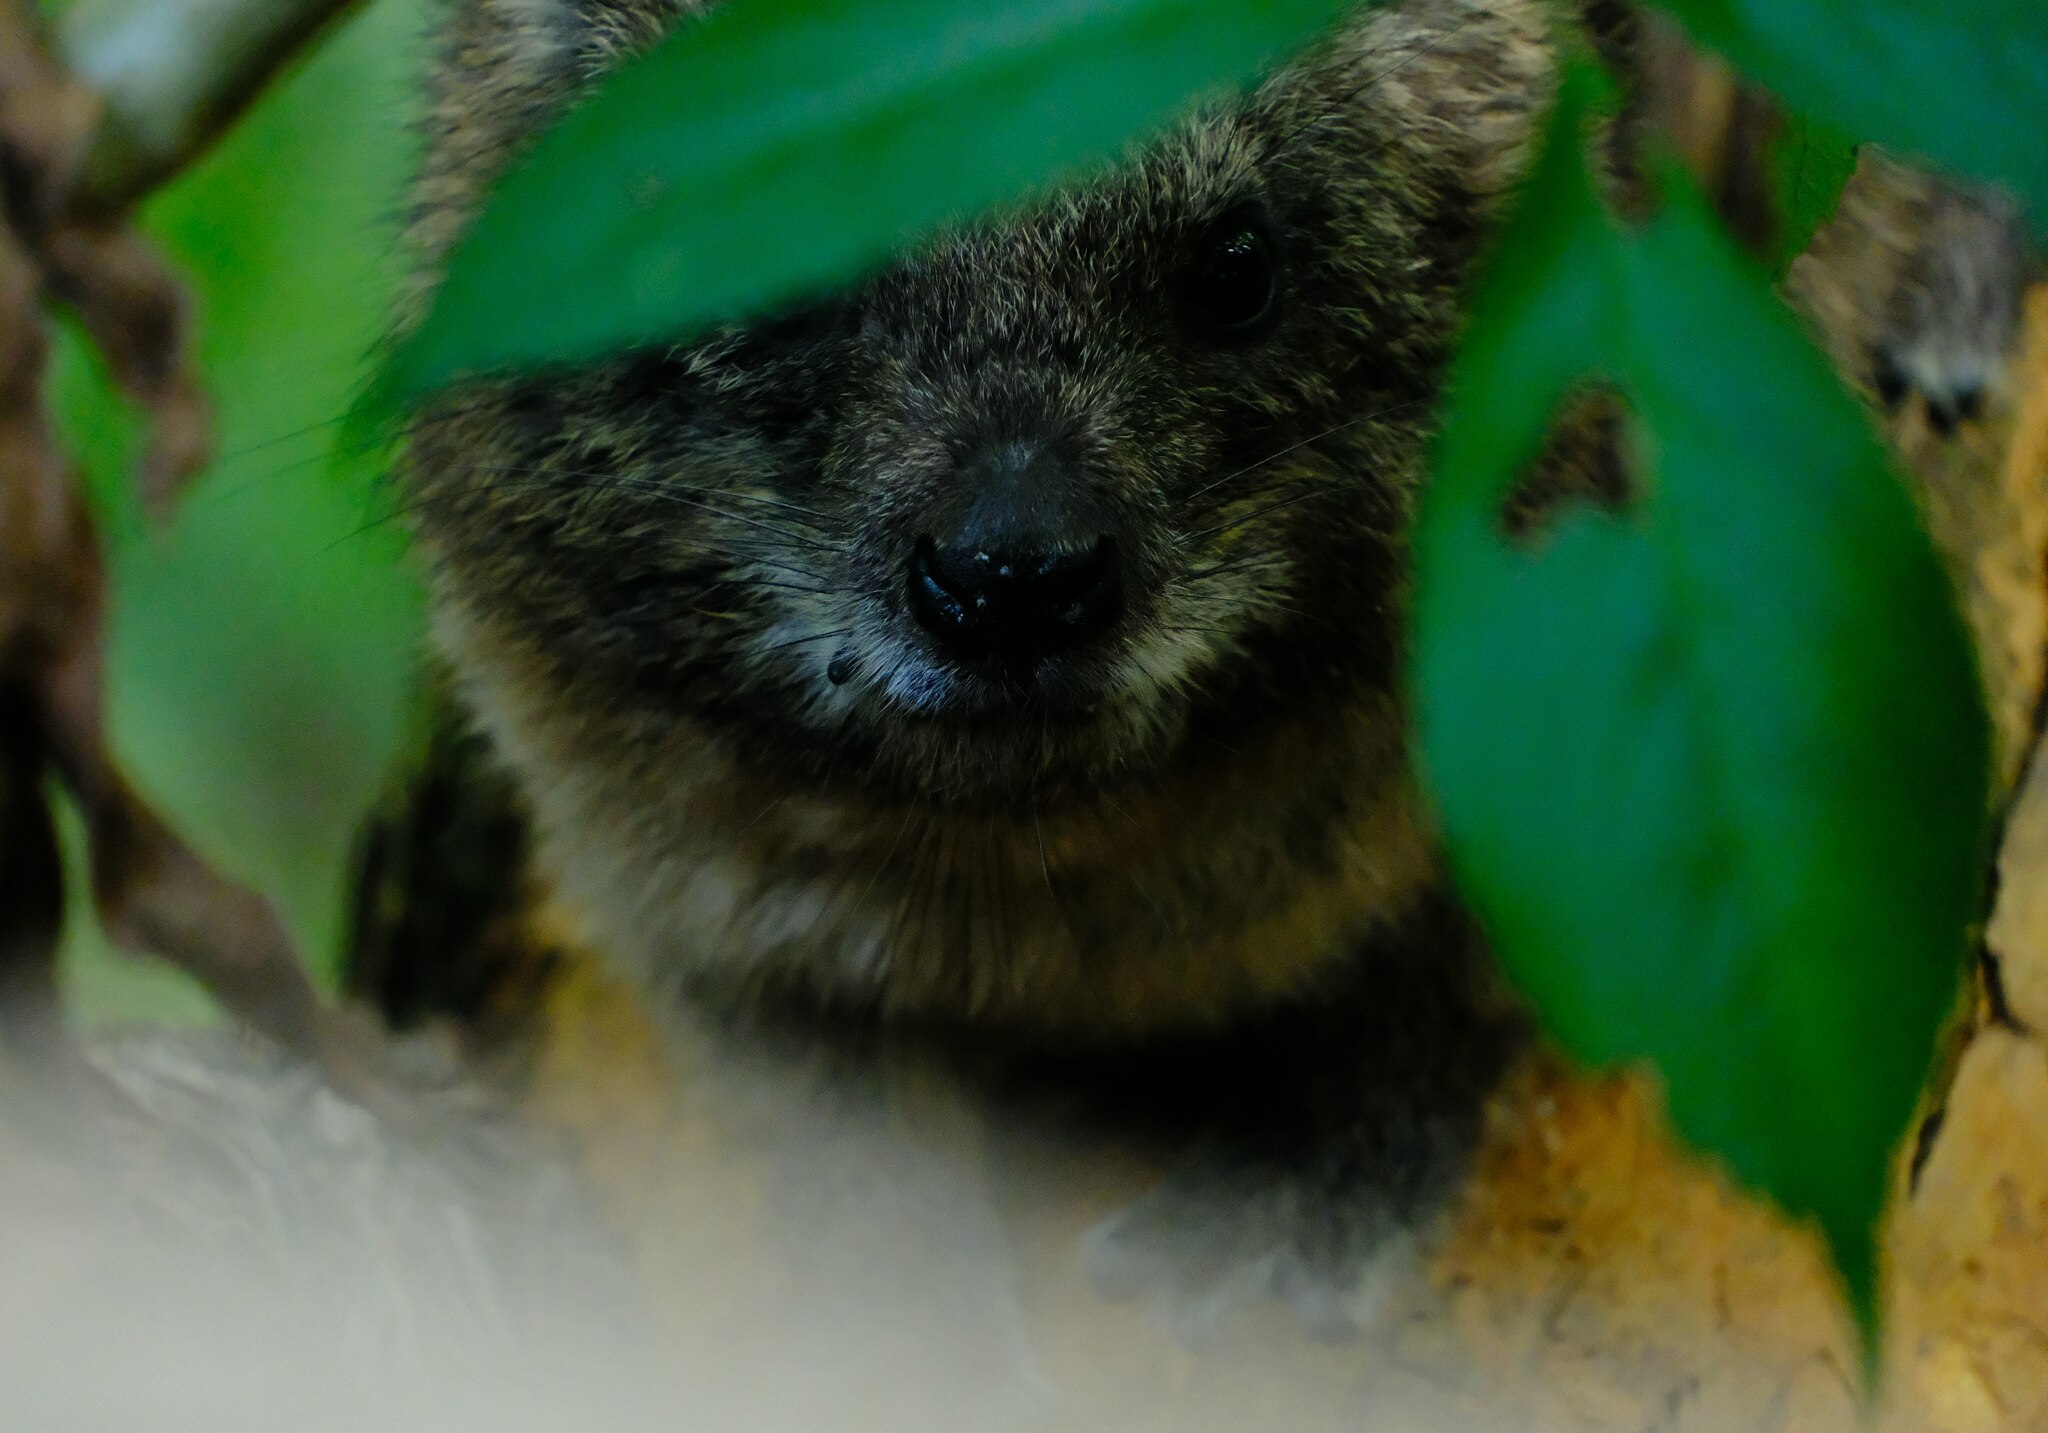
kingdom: Animalia
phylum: Chordata
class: Mammalia
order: Hyracoidea
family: Procaviidae
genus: Dendrohyrax
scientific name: Dendrohyrax arboreus
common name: Southern tree hyrax
